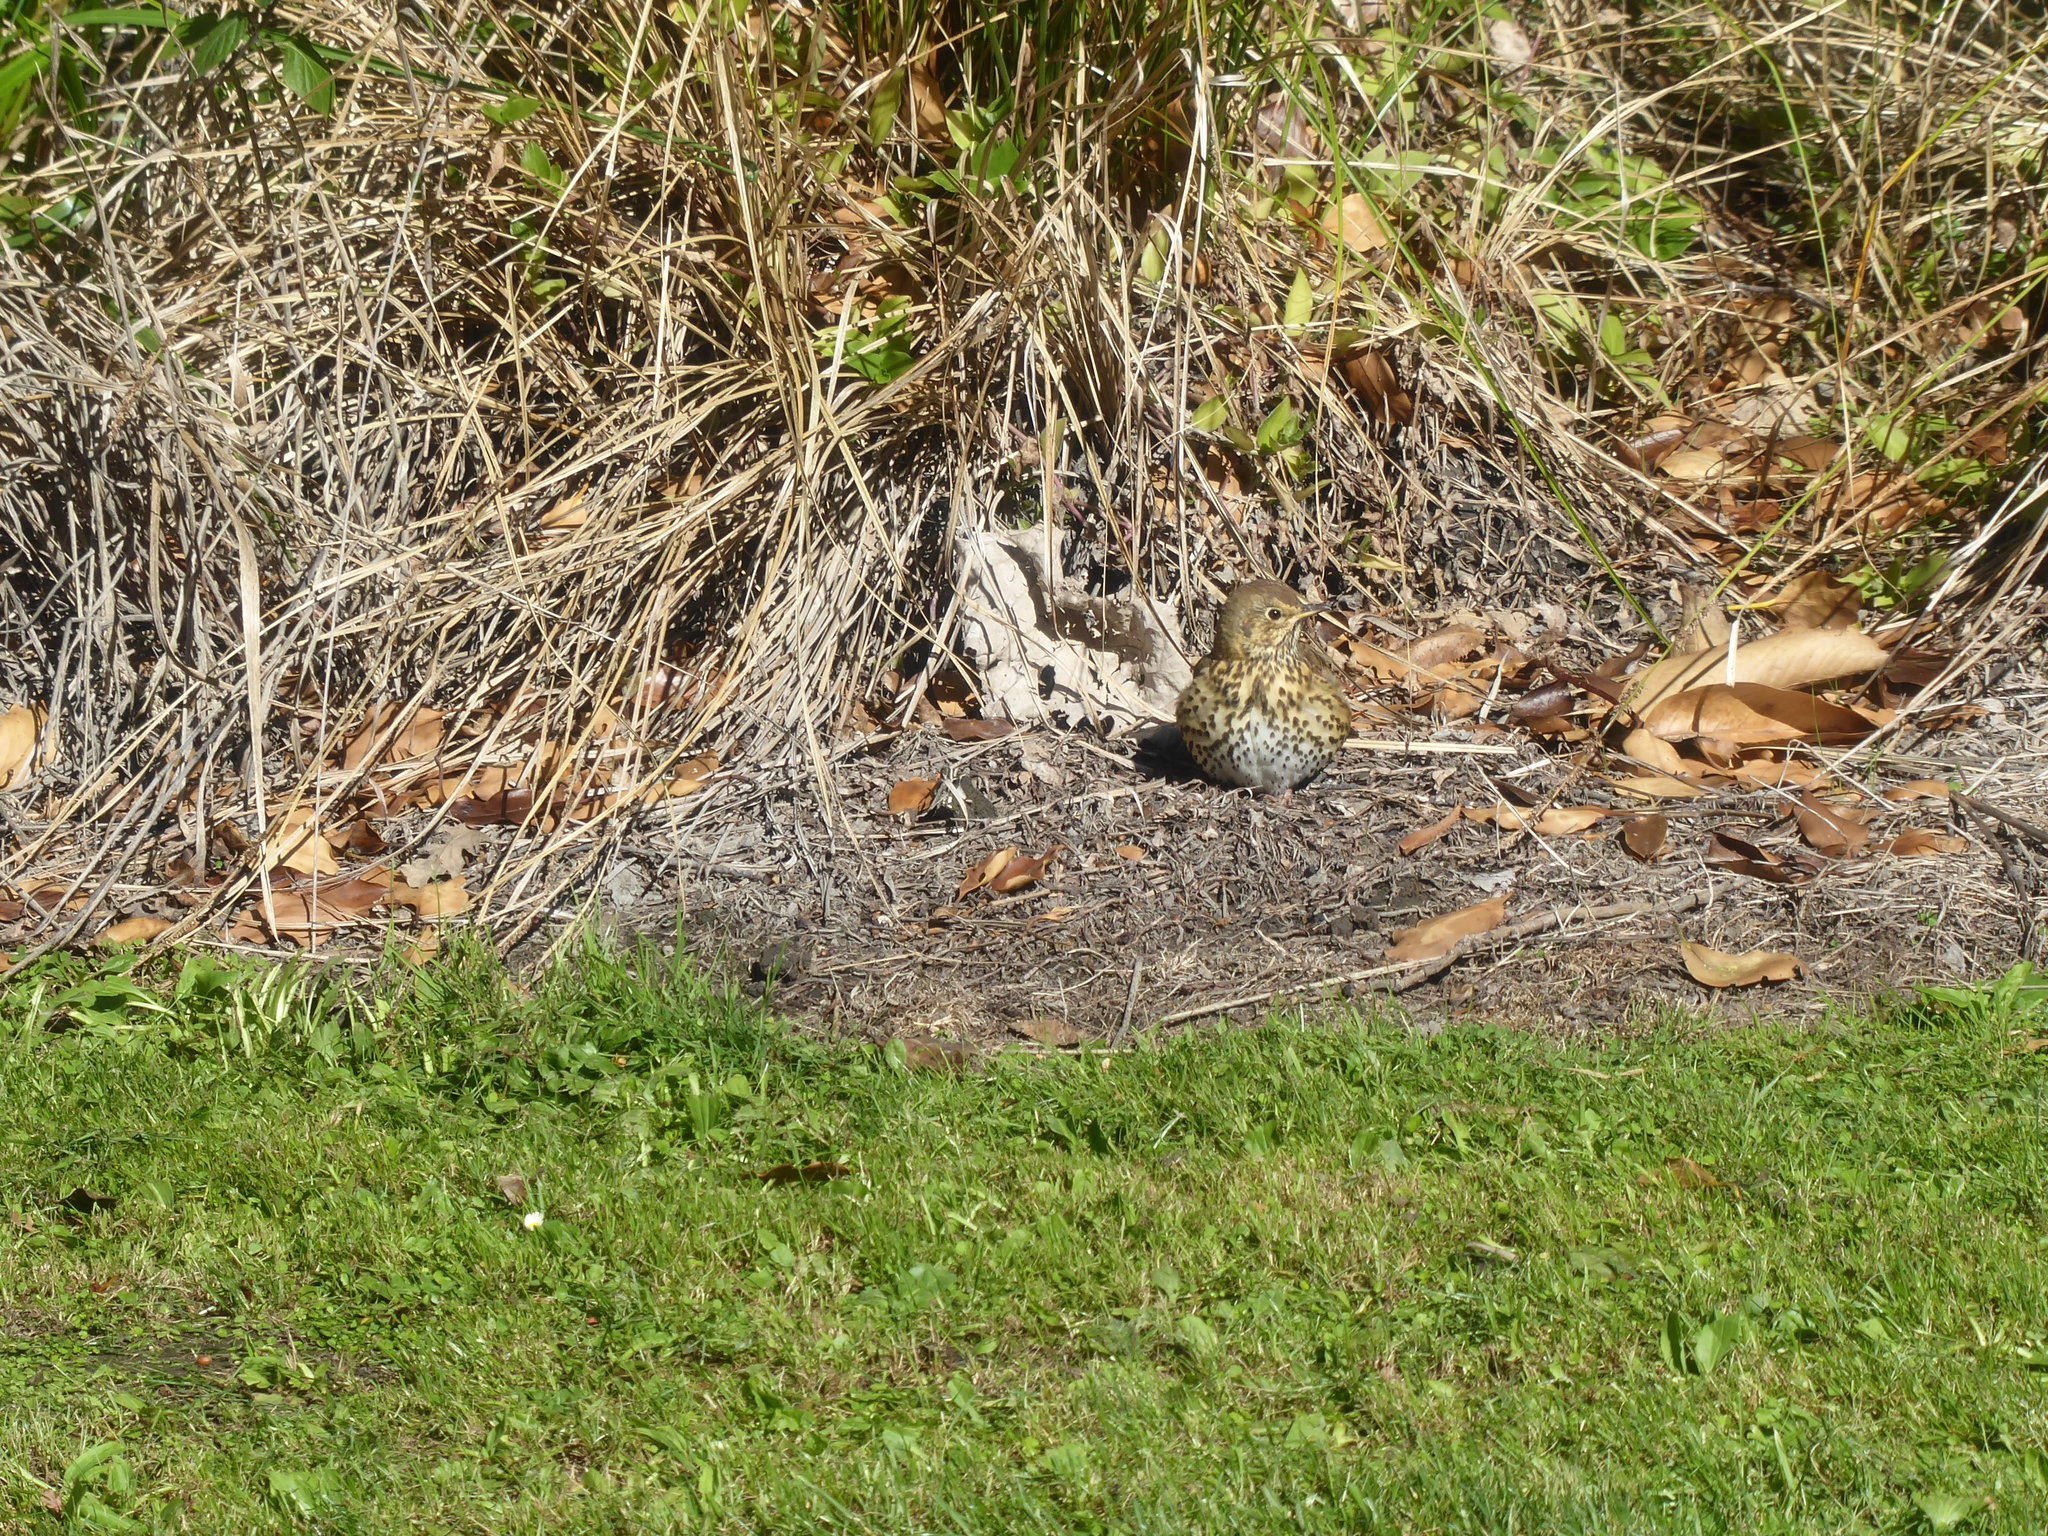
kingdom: Animalia
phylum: Chordata
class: Aves
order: Passeriformes
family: Turdidae
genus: Turdus
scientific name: Turdus philomelos
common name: Song thrush
